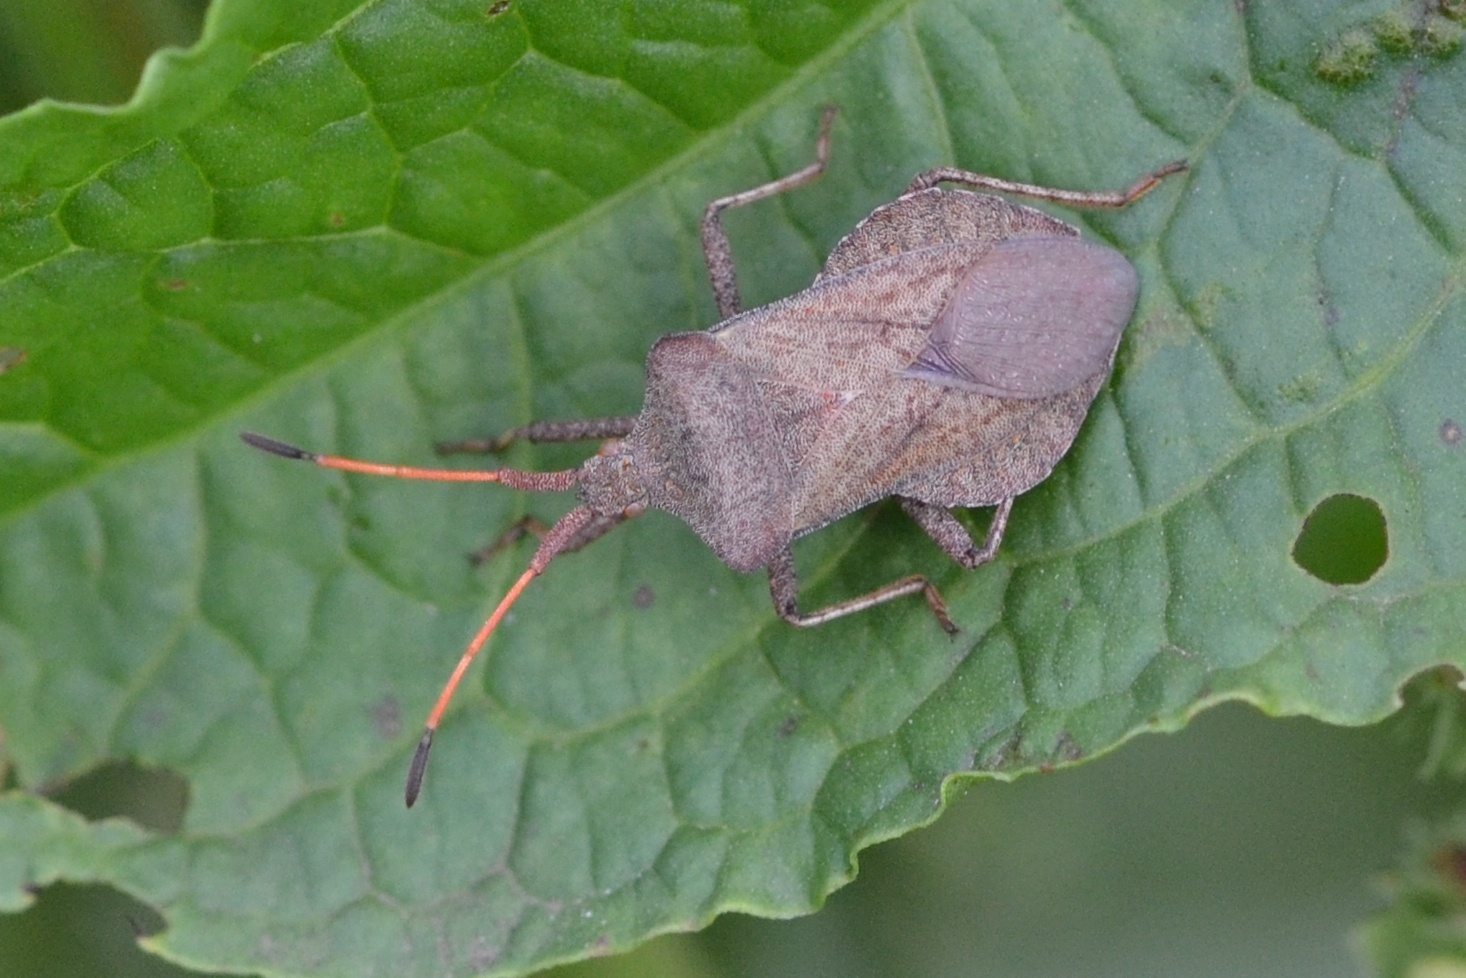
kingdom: Animalia
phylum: Arthropoda
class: Insecta
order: Hemiptera
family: Coreidae
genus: Coreus
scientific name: Coreus marginatus
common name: Dock bug
